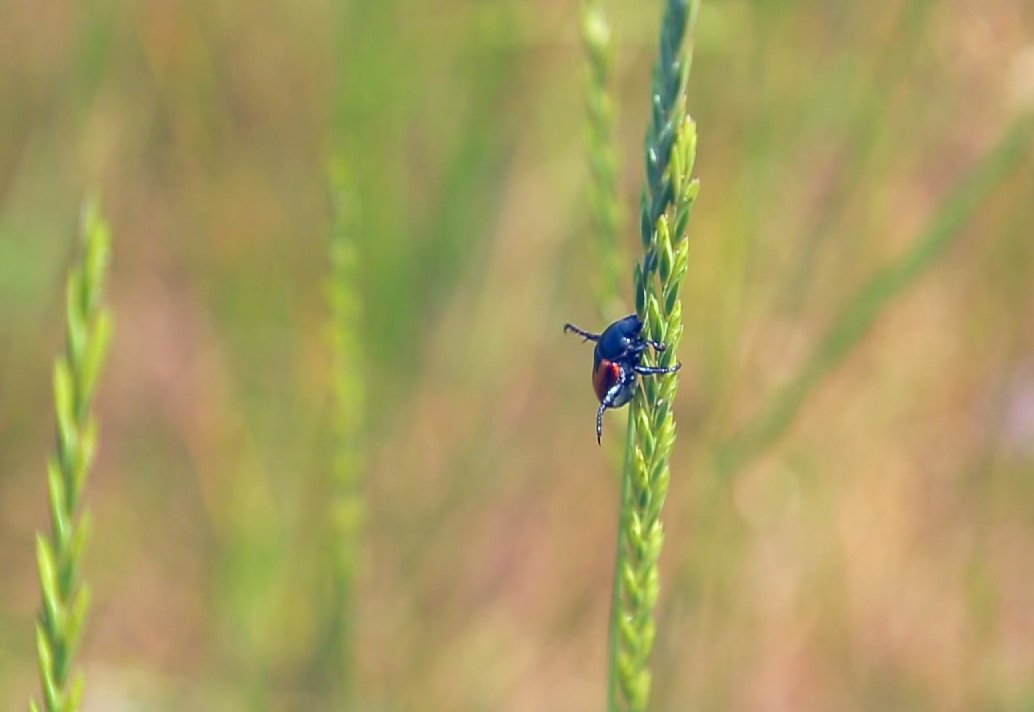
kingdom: Animalia
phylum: Arthropoda
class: Insecta
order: Coleoptera
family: Scarabaeidae
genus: Anisoplia
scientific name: Anisoplia austriaca
